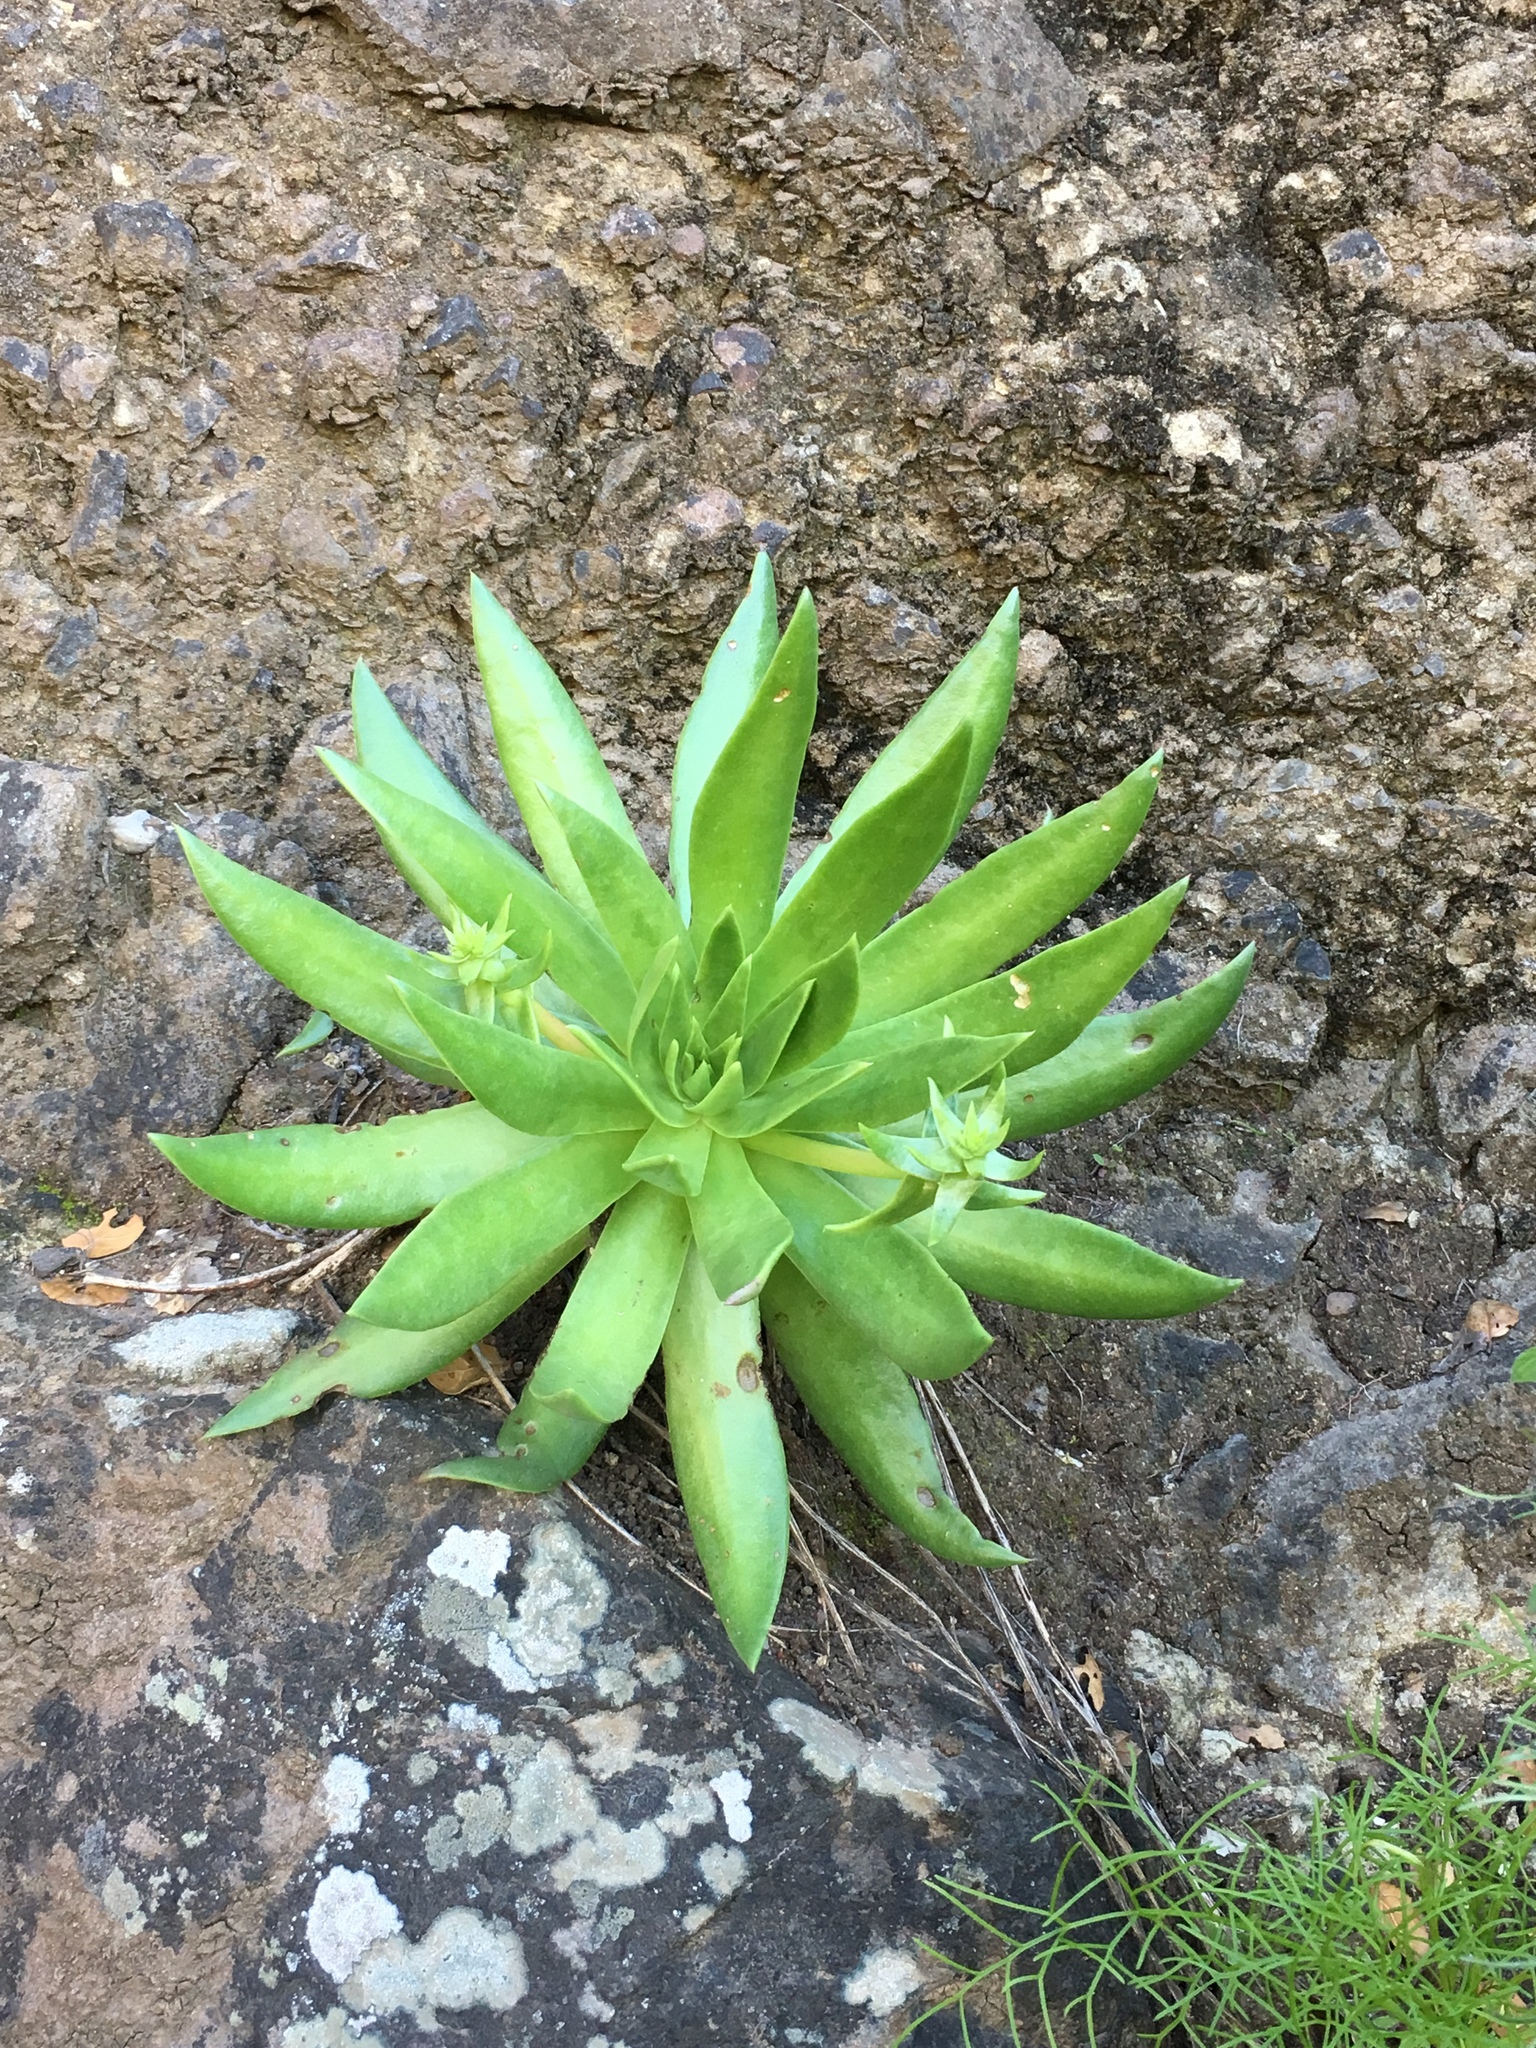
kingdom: Plantae
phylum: Tracheophyta
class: Magnoliopsida
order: Saxifragales
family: Crassulaceae
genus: Dudleya
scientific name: Dudleya candelabrum
